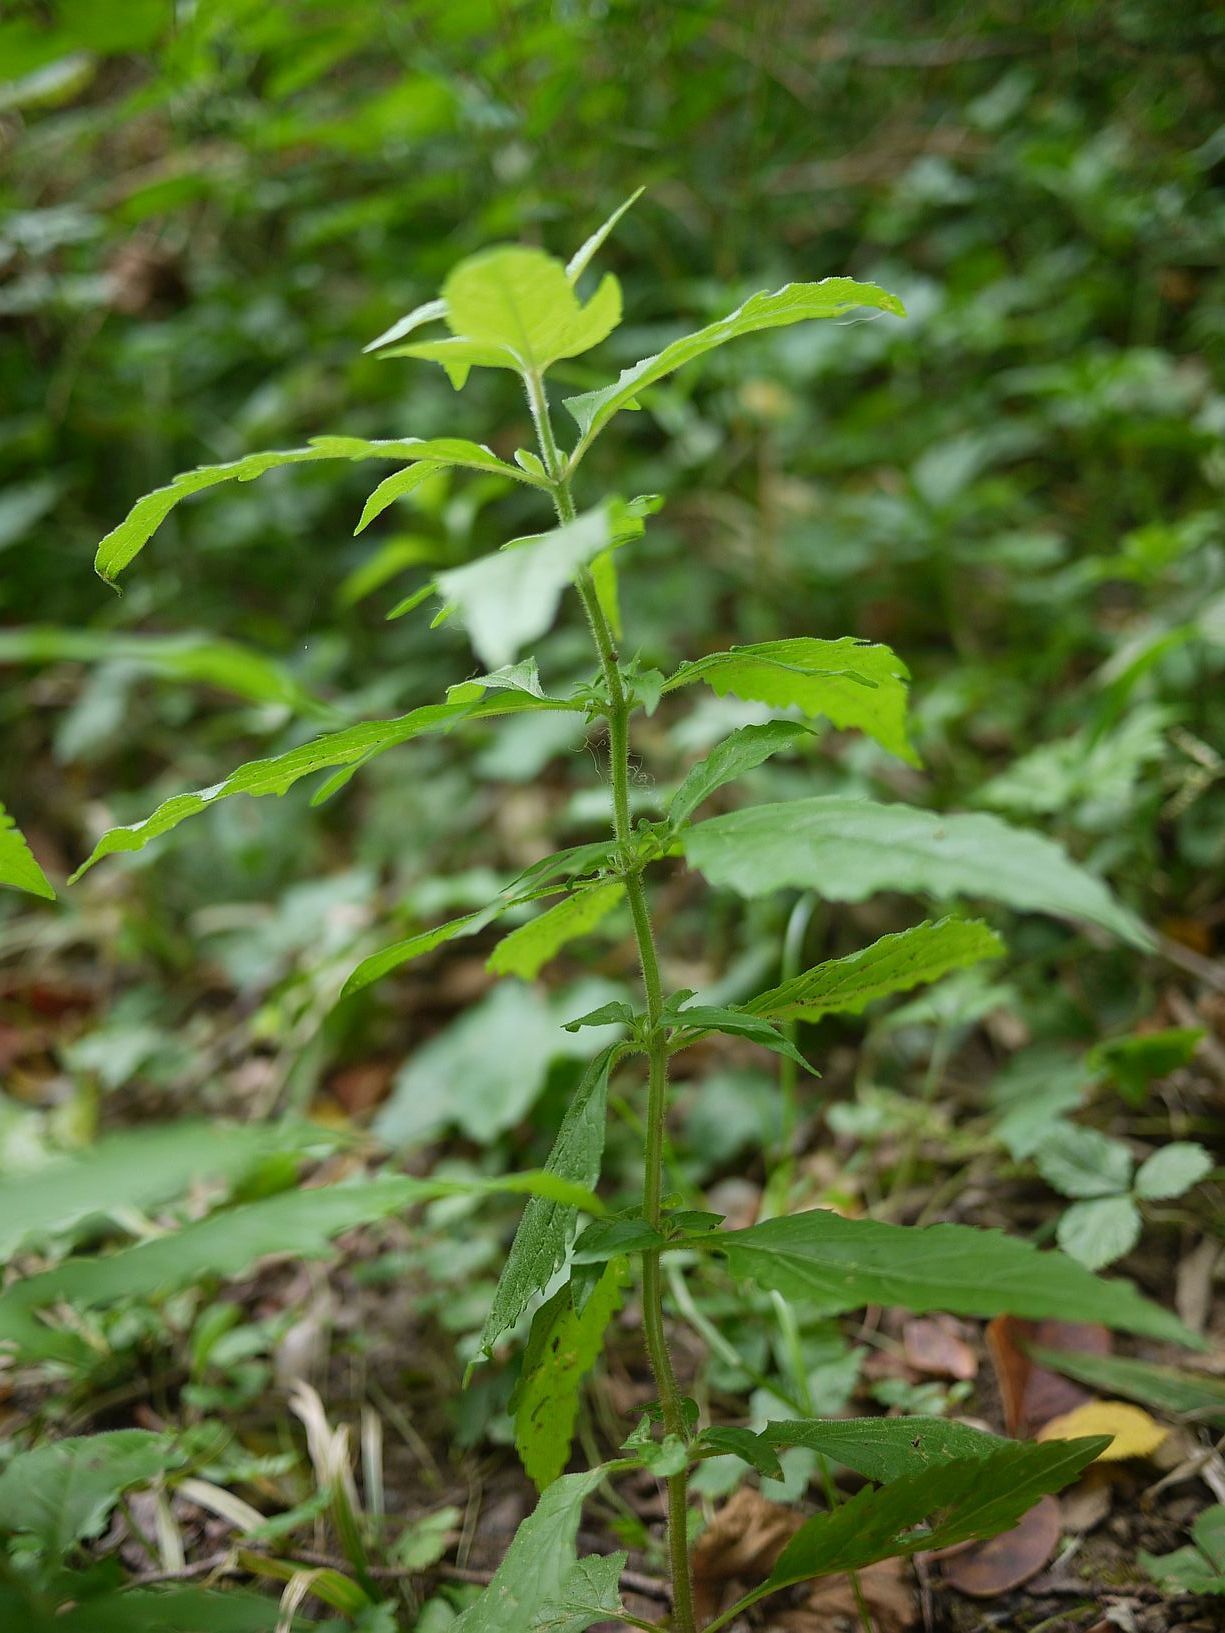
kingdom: Plantae
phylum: Tracheophyta
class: Magnoliopsida
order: Asterales
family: Asteraceae
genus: Eupatorium
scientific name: Eupatorium cannabinum
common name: Hemp-agrimony
